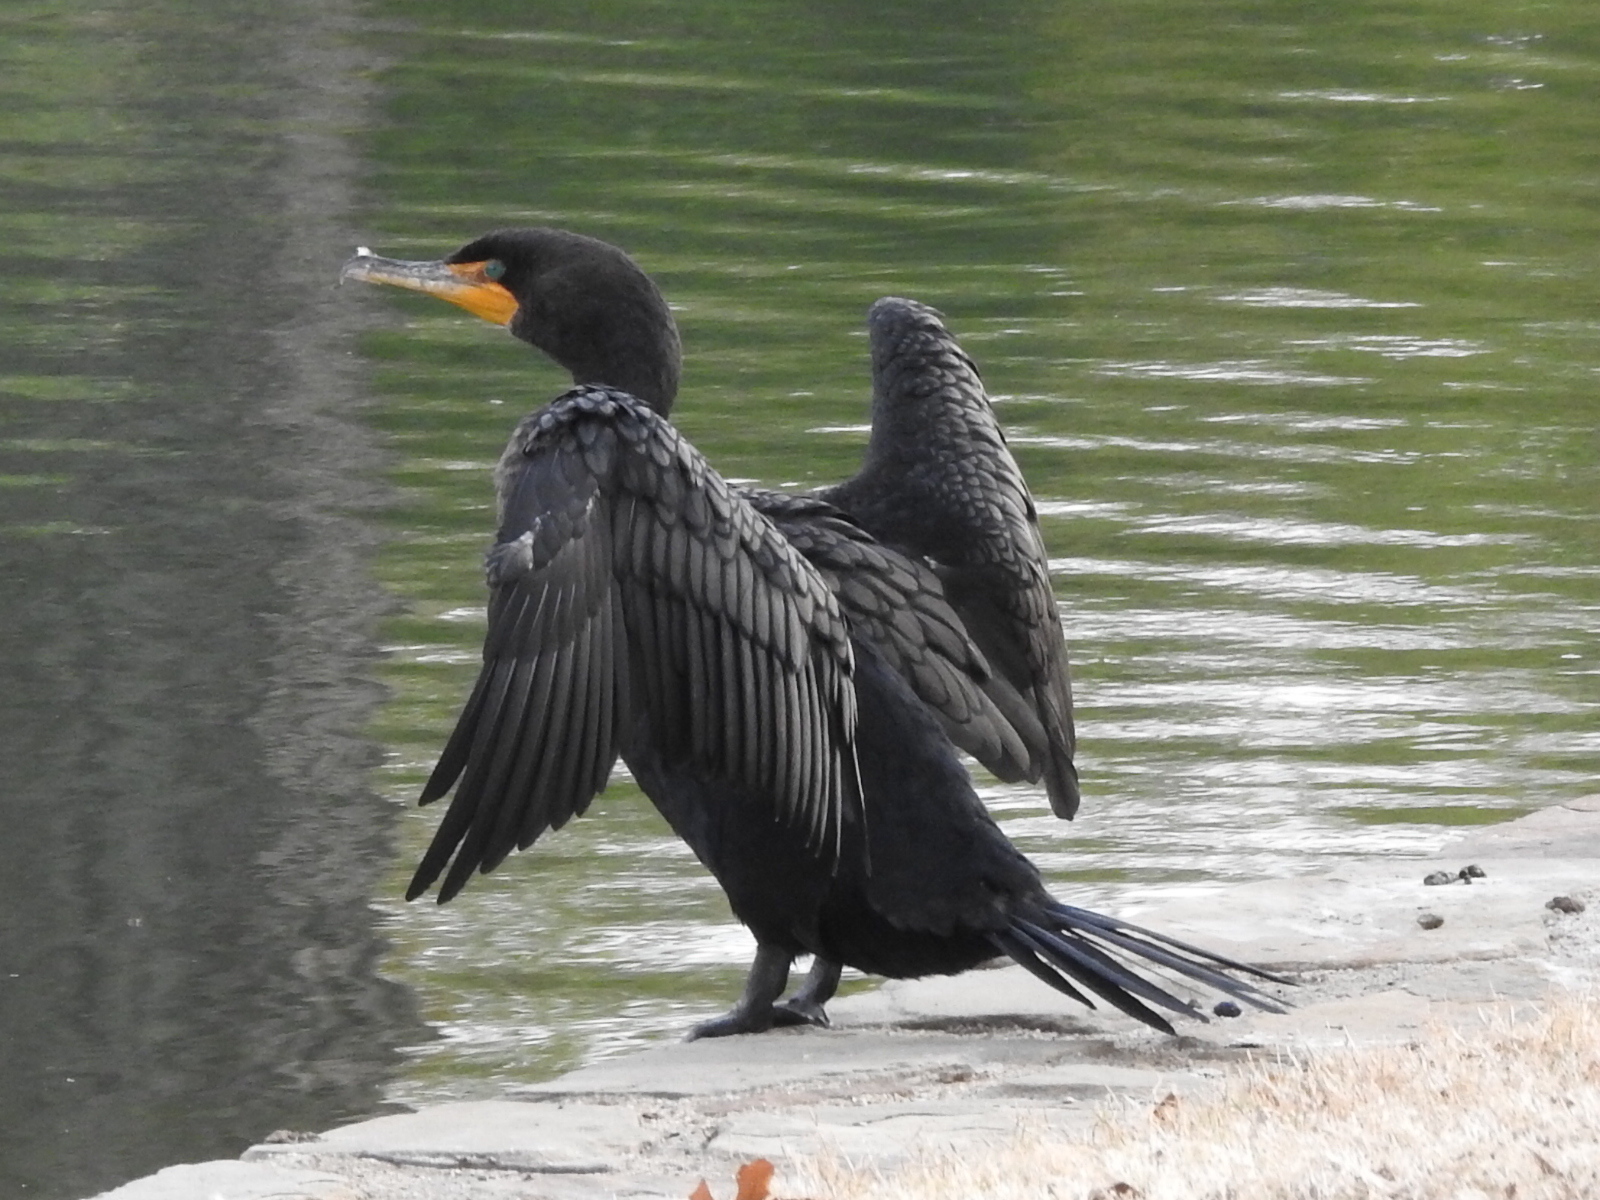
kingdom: Animalia
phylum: Chordata
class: Aves
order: Suliformes
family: Phalacrocoracidae
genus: Phalacrocorax
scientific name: Phalacrocorax auritus
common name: Double-crested cormorant
